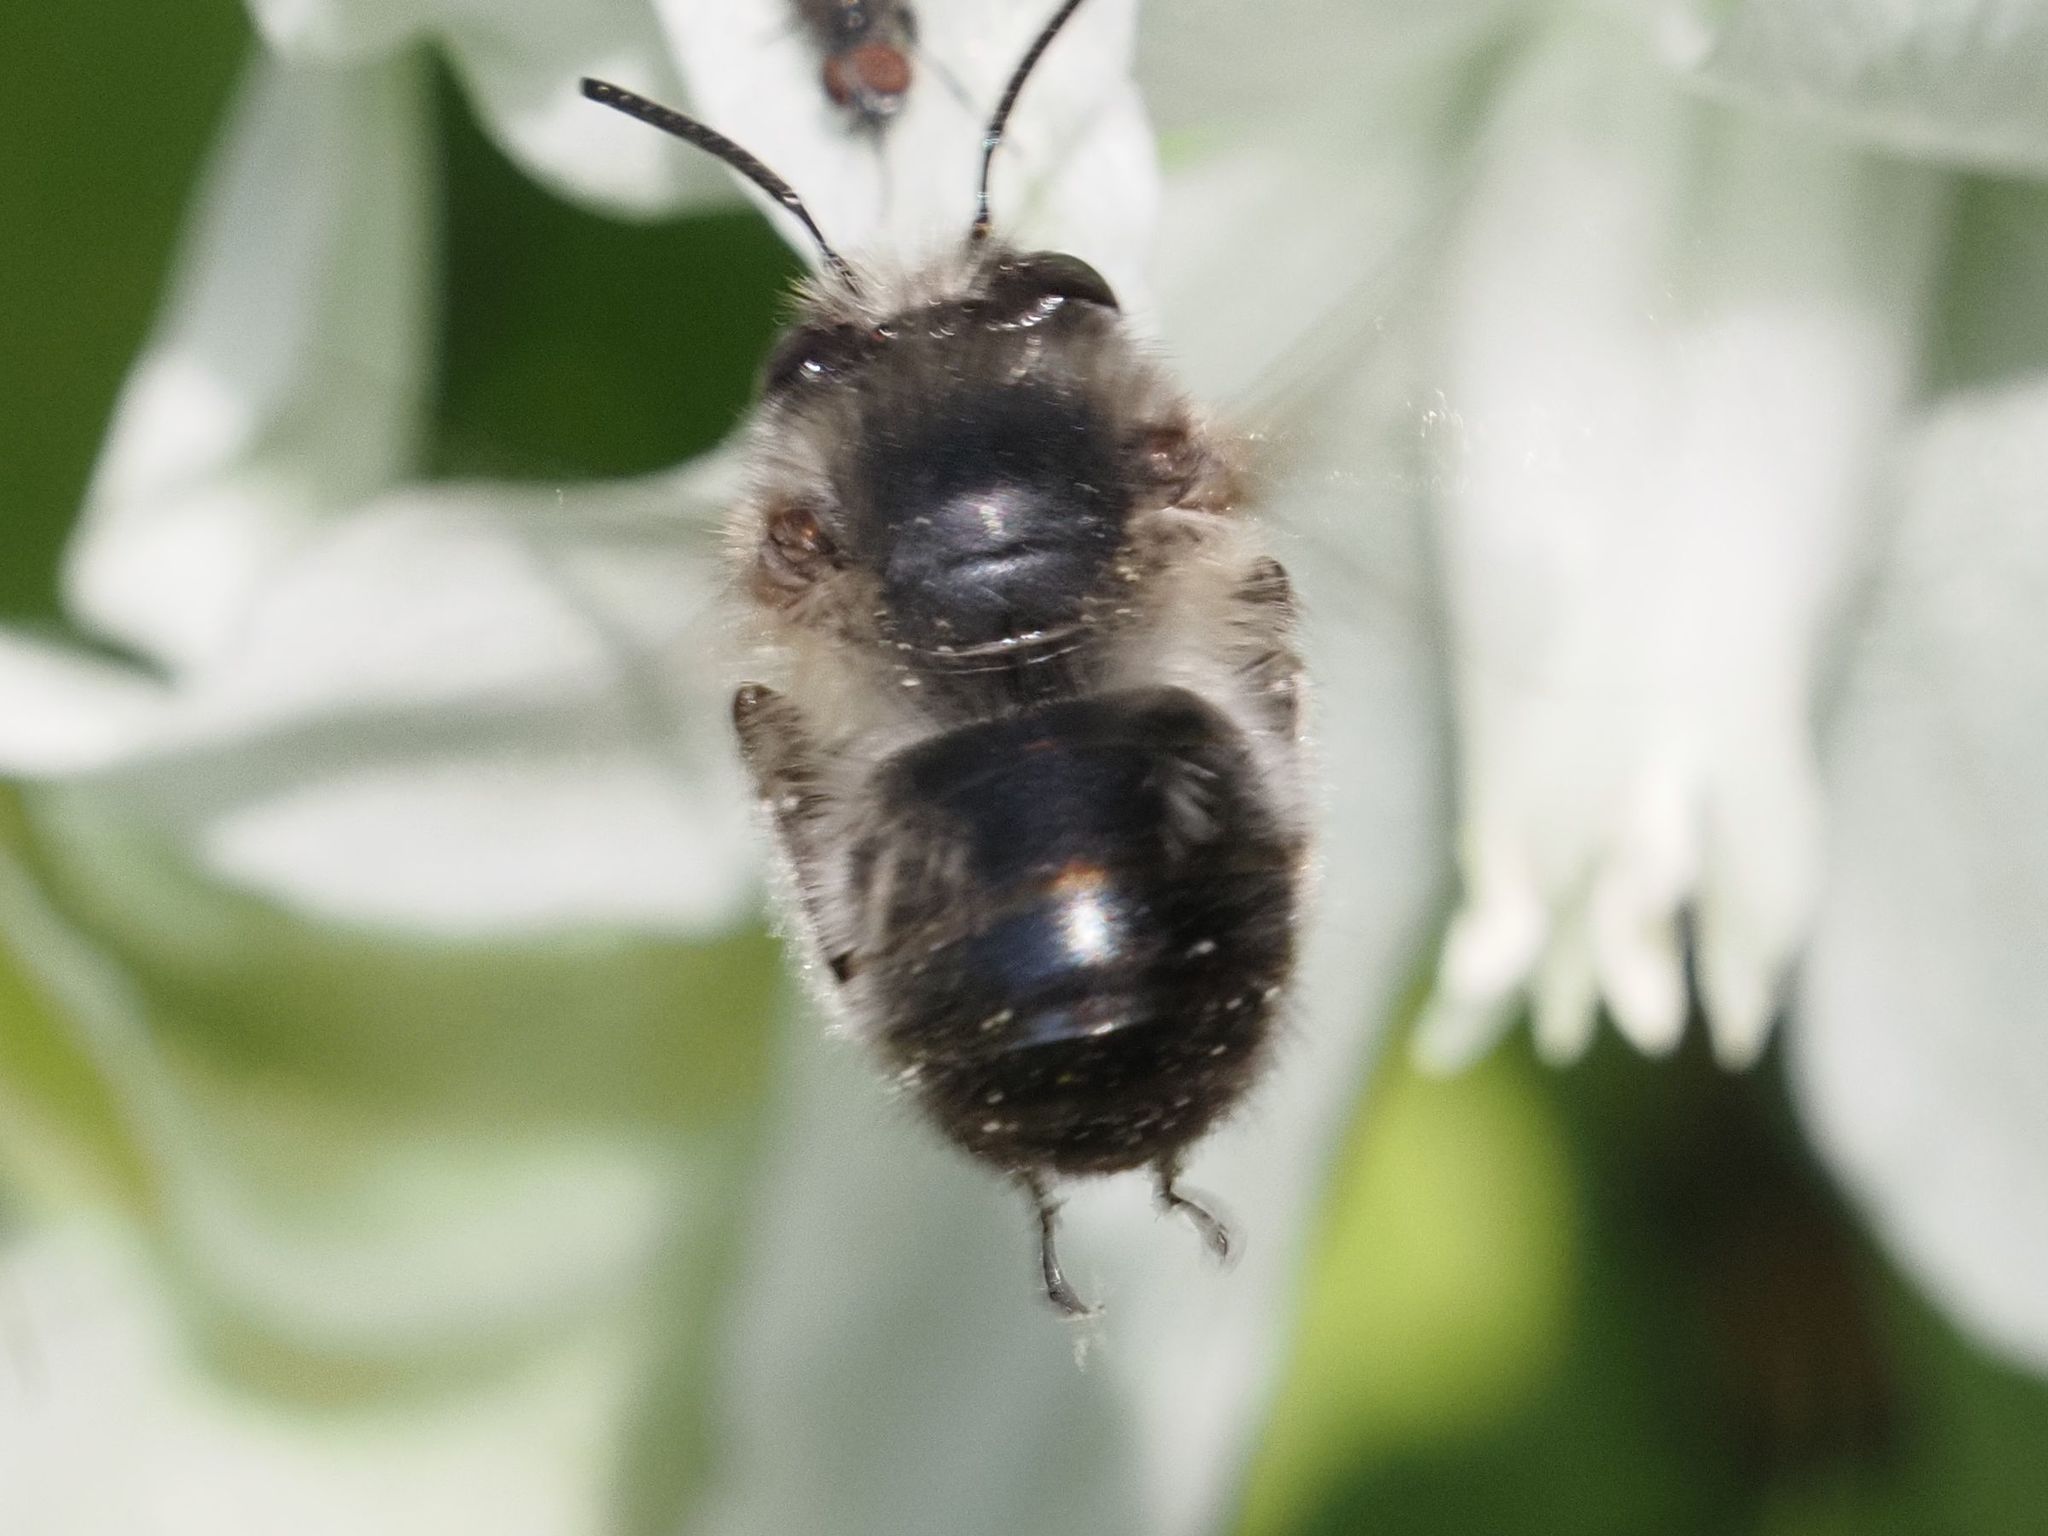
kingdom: Animalia
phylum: Arthropoda
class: Insecta
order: Hymenoptera
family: Apidae
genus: Anthophora
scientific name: Anthophora plumipes
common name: Hairy-footed flower bee
